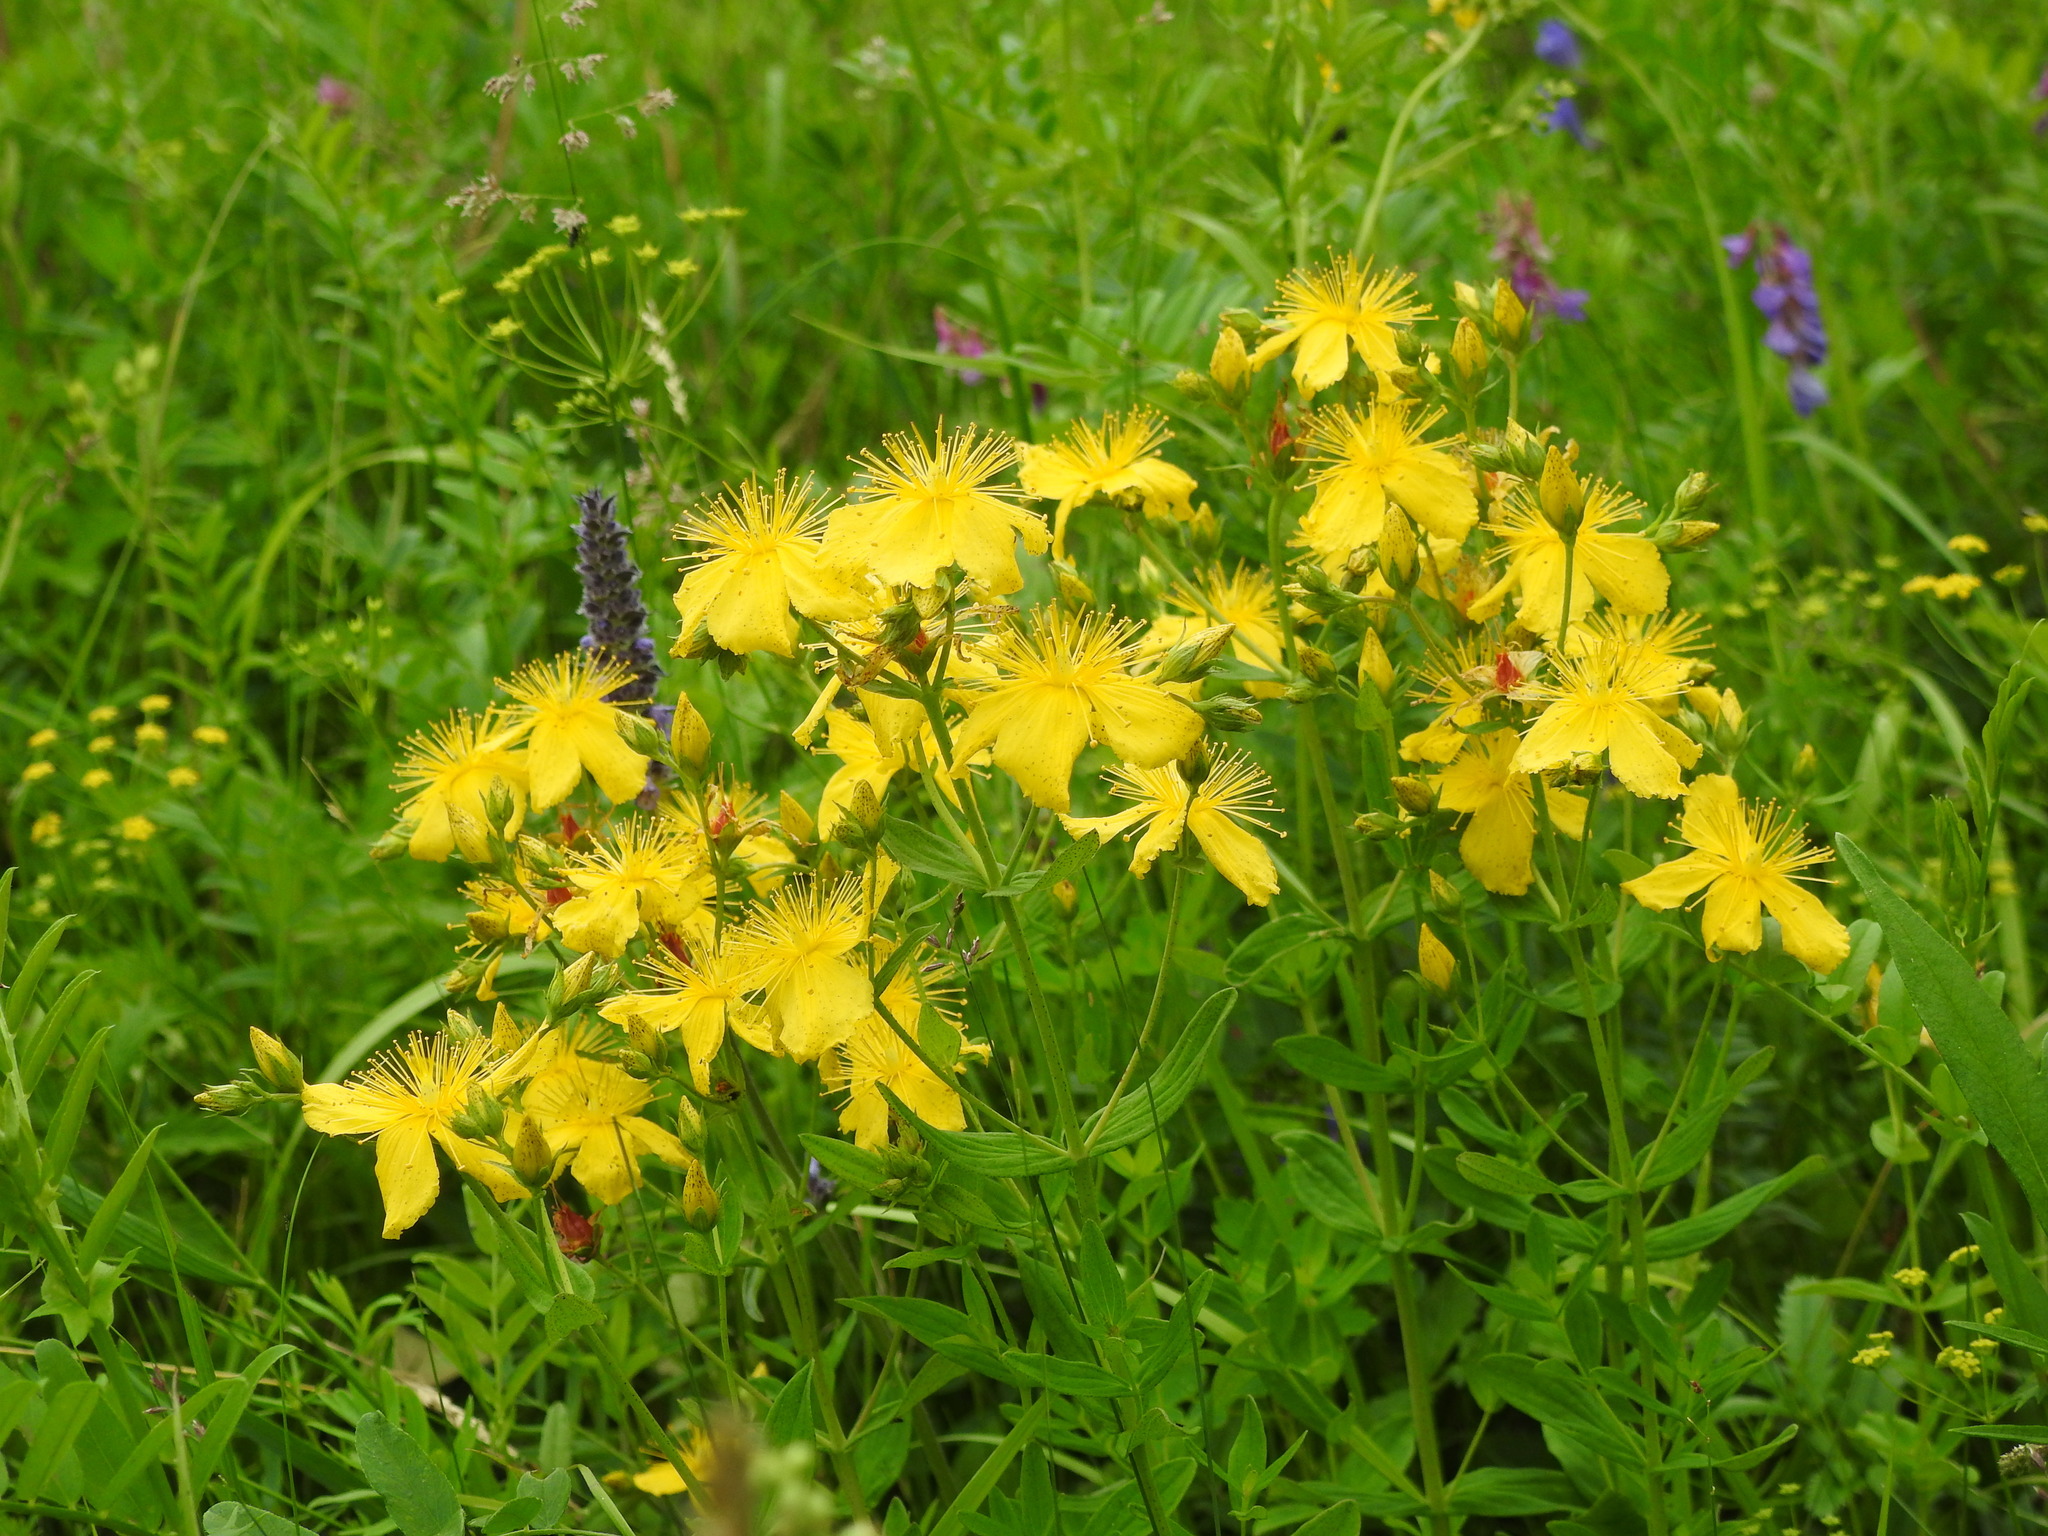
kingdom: Plantae
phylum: Tracheophyta
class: Magnoliopsida
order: Malpighiales
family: Hypericaceae
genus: Hypericum
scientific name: Hypericum attenuatum
